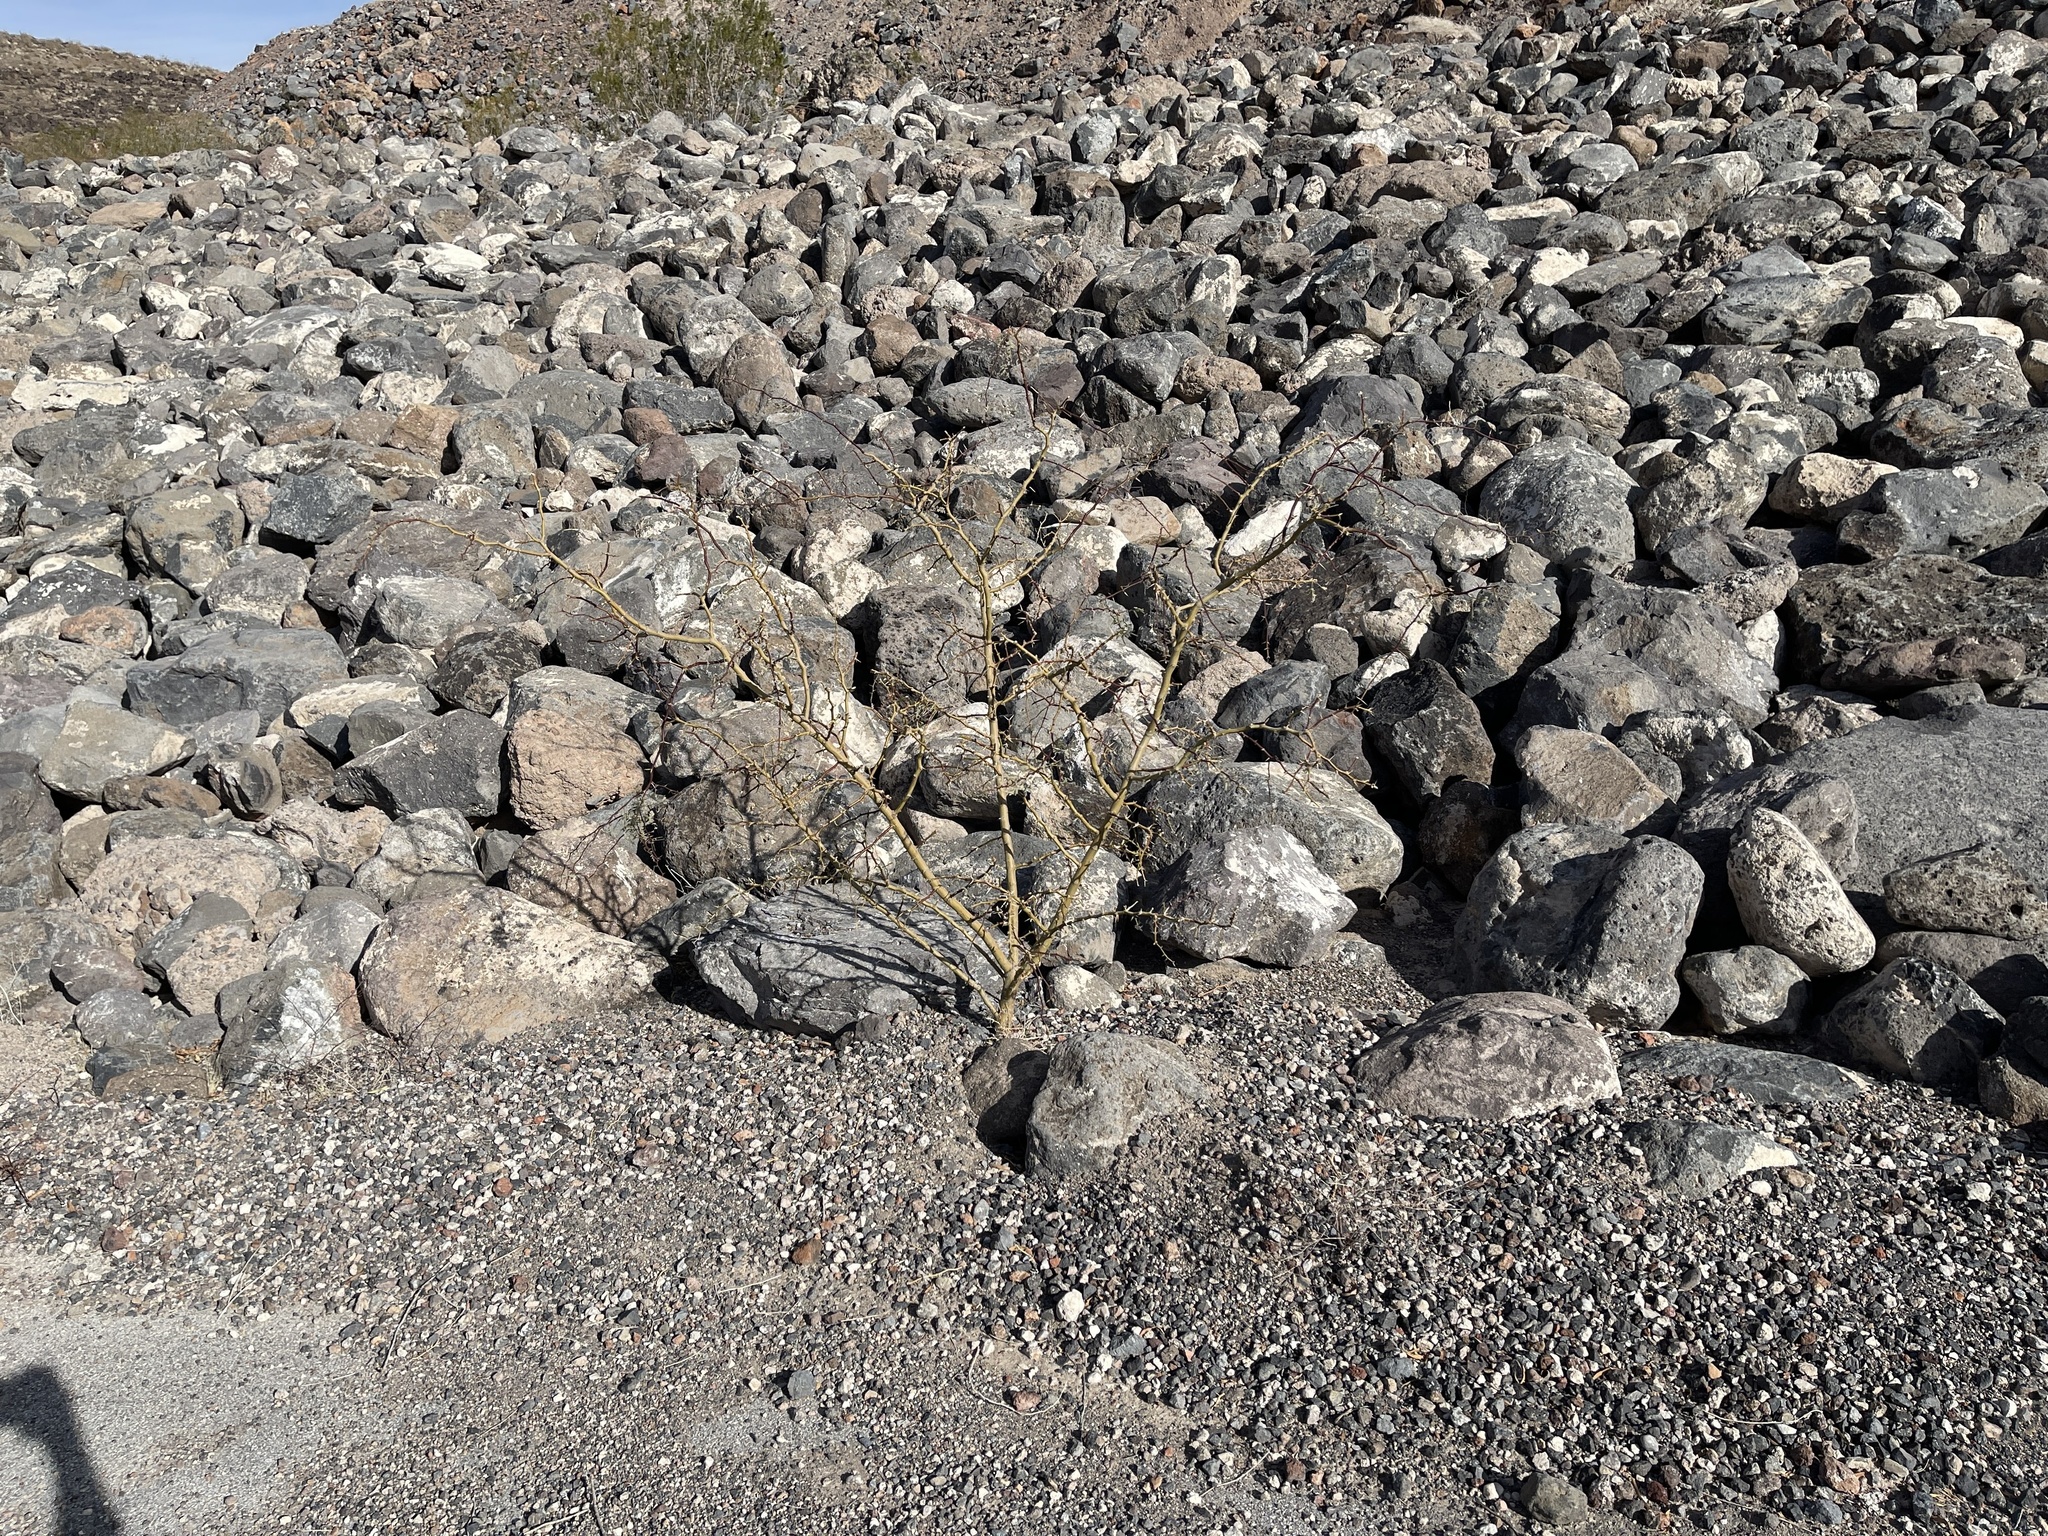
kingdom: Plantae
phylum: Tracheophyta
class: Magnoliopsida
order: Fabales
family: Fabaceae
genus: Prosopis
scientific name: Prosopis pubescens
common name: Screw-bean
